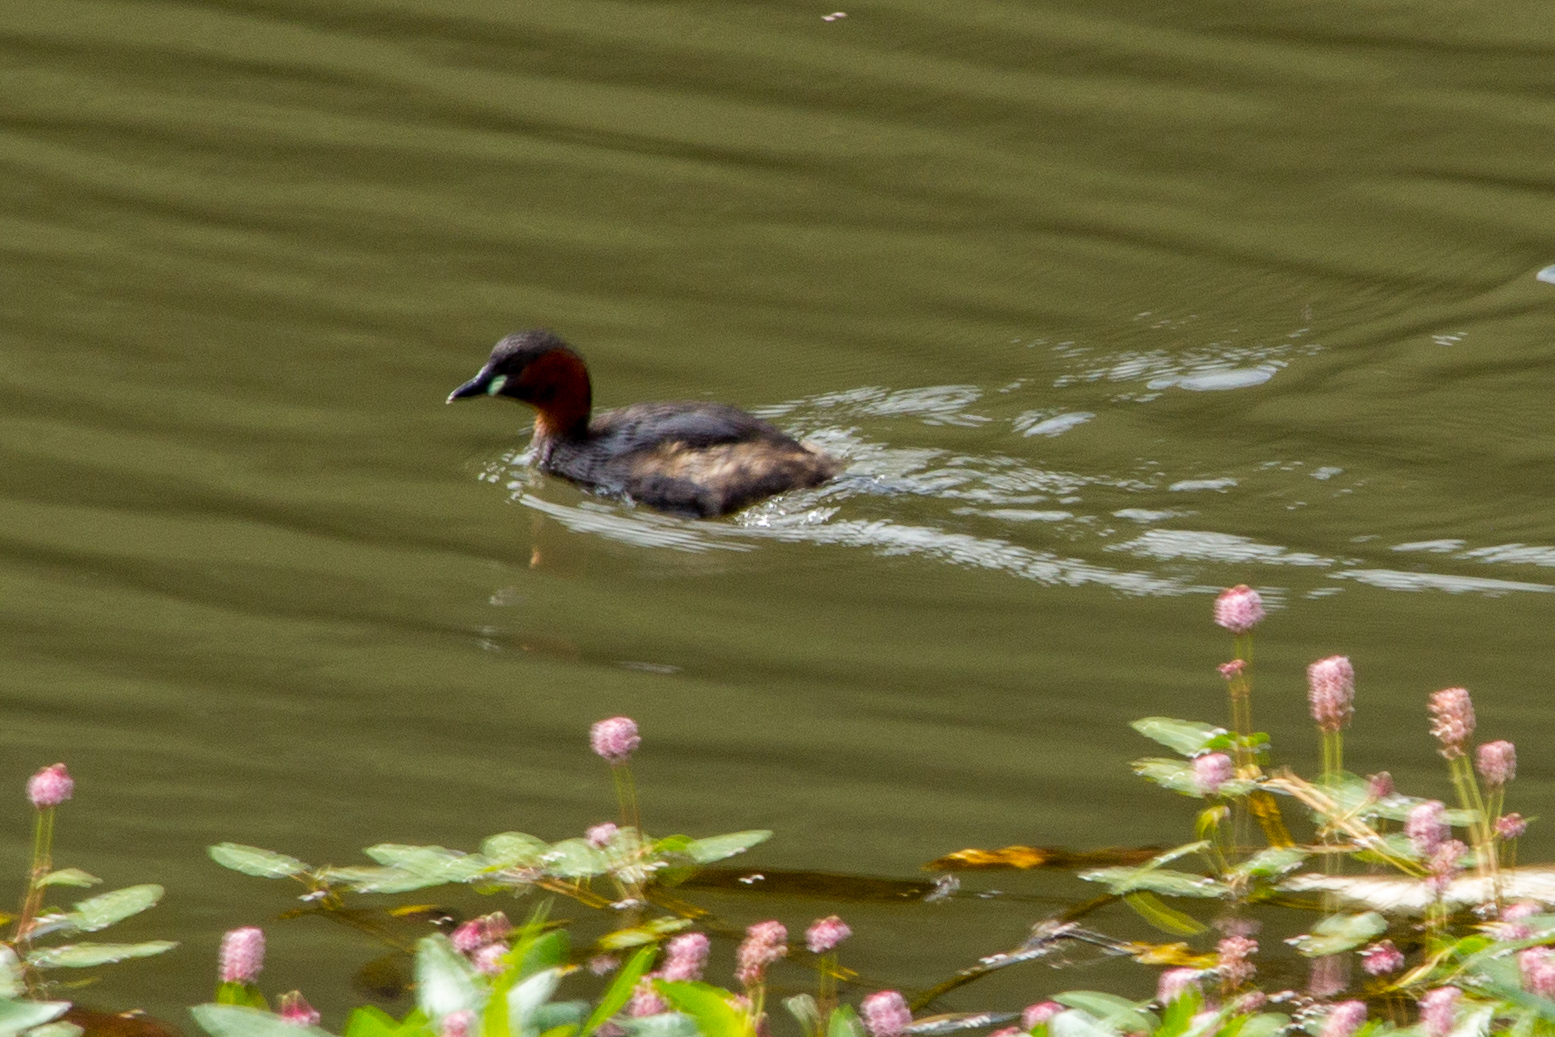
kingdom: Animalia
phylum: Chordata
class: Aves
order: Podicipediformes
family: Podicipedidae
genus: Tachybaptus
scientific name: Tachybaptus ruficollis
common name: Little grebe
